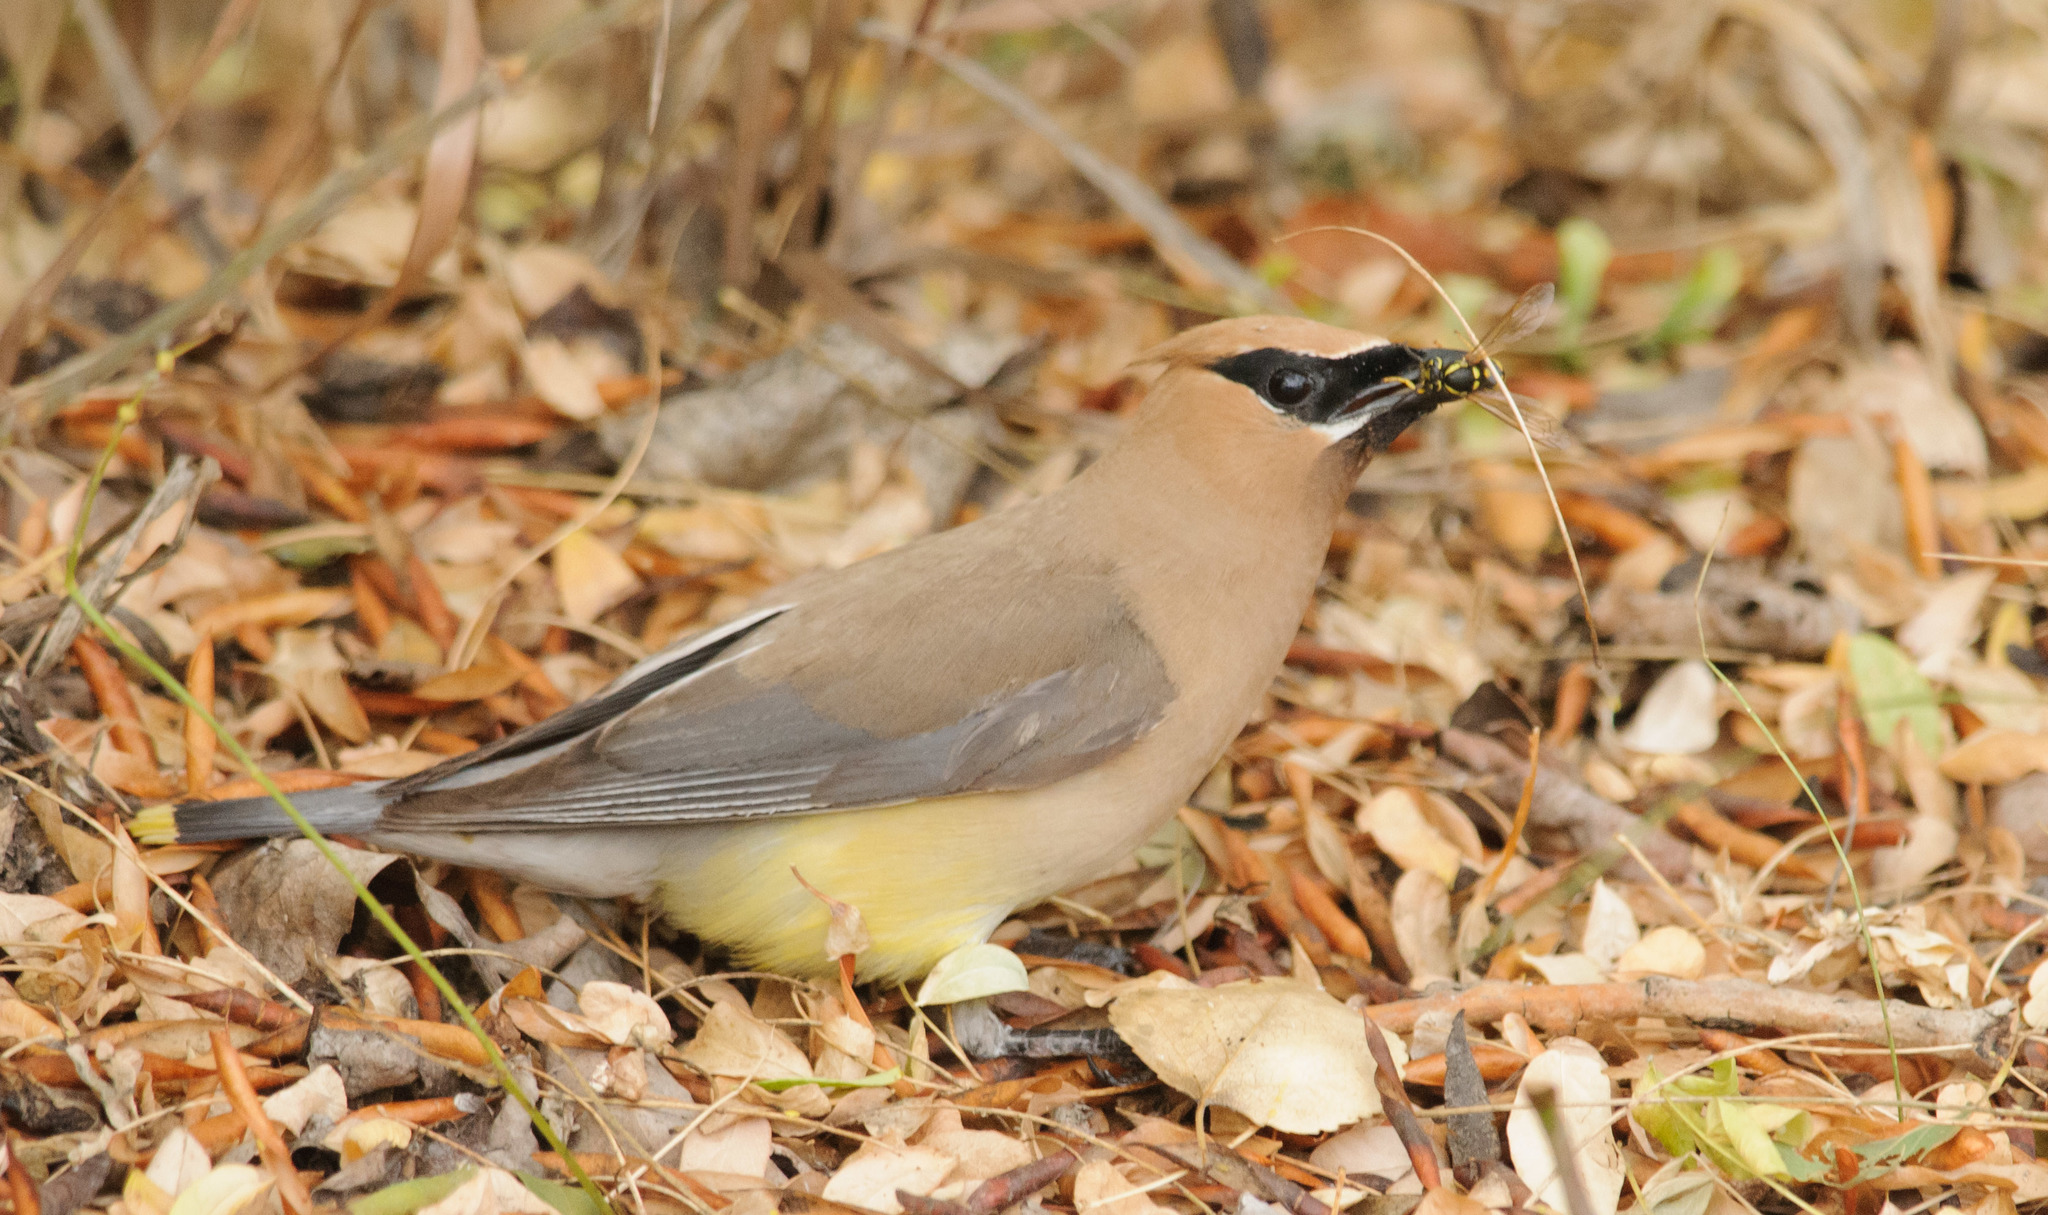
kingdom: Animalia
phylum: Chordata
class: Aves
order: Passeriformes
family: Bombycillidae
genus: Bombycilla
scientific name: Bombycilla cedrorum
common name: Cedar waxwing
